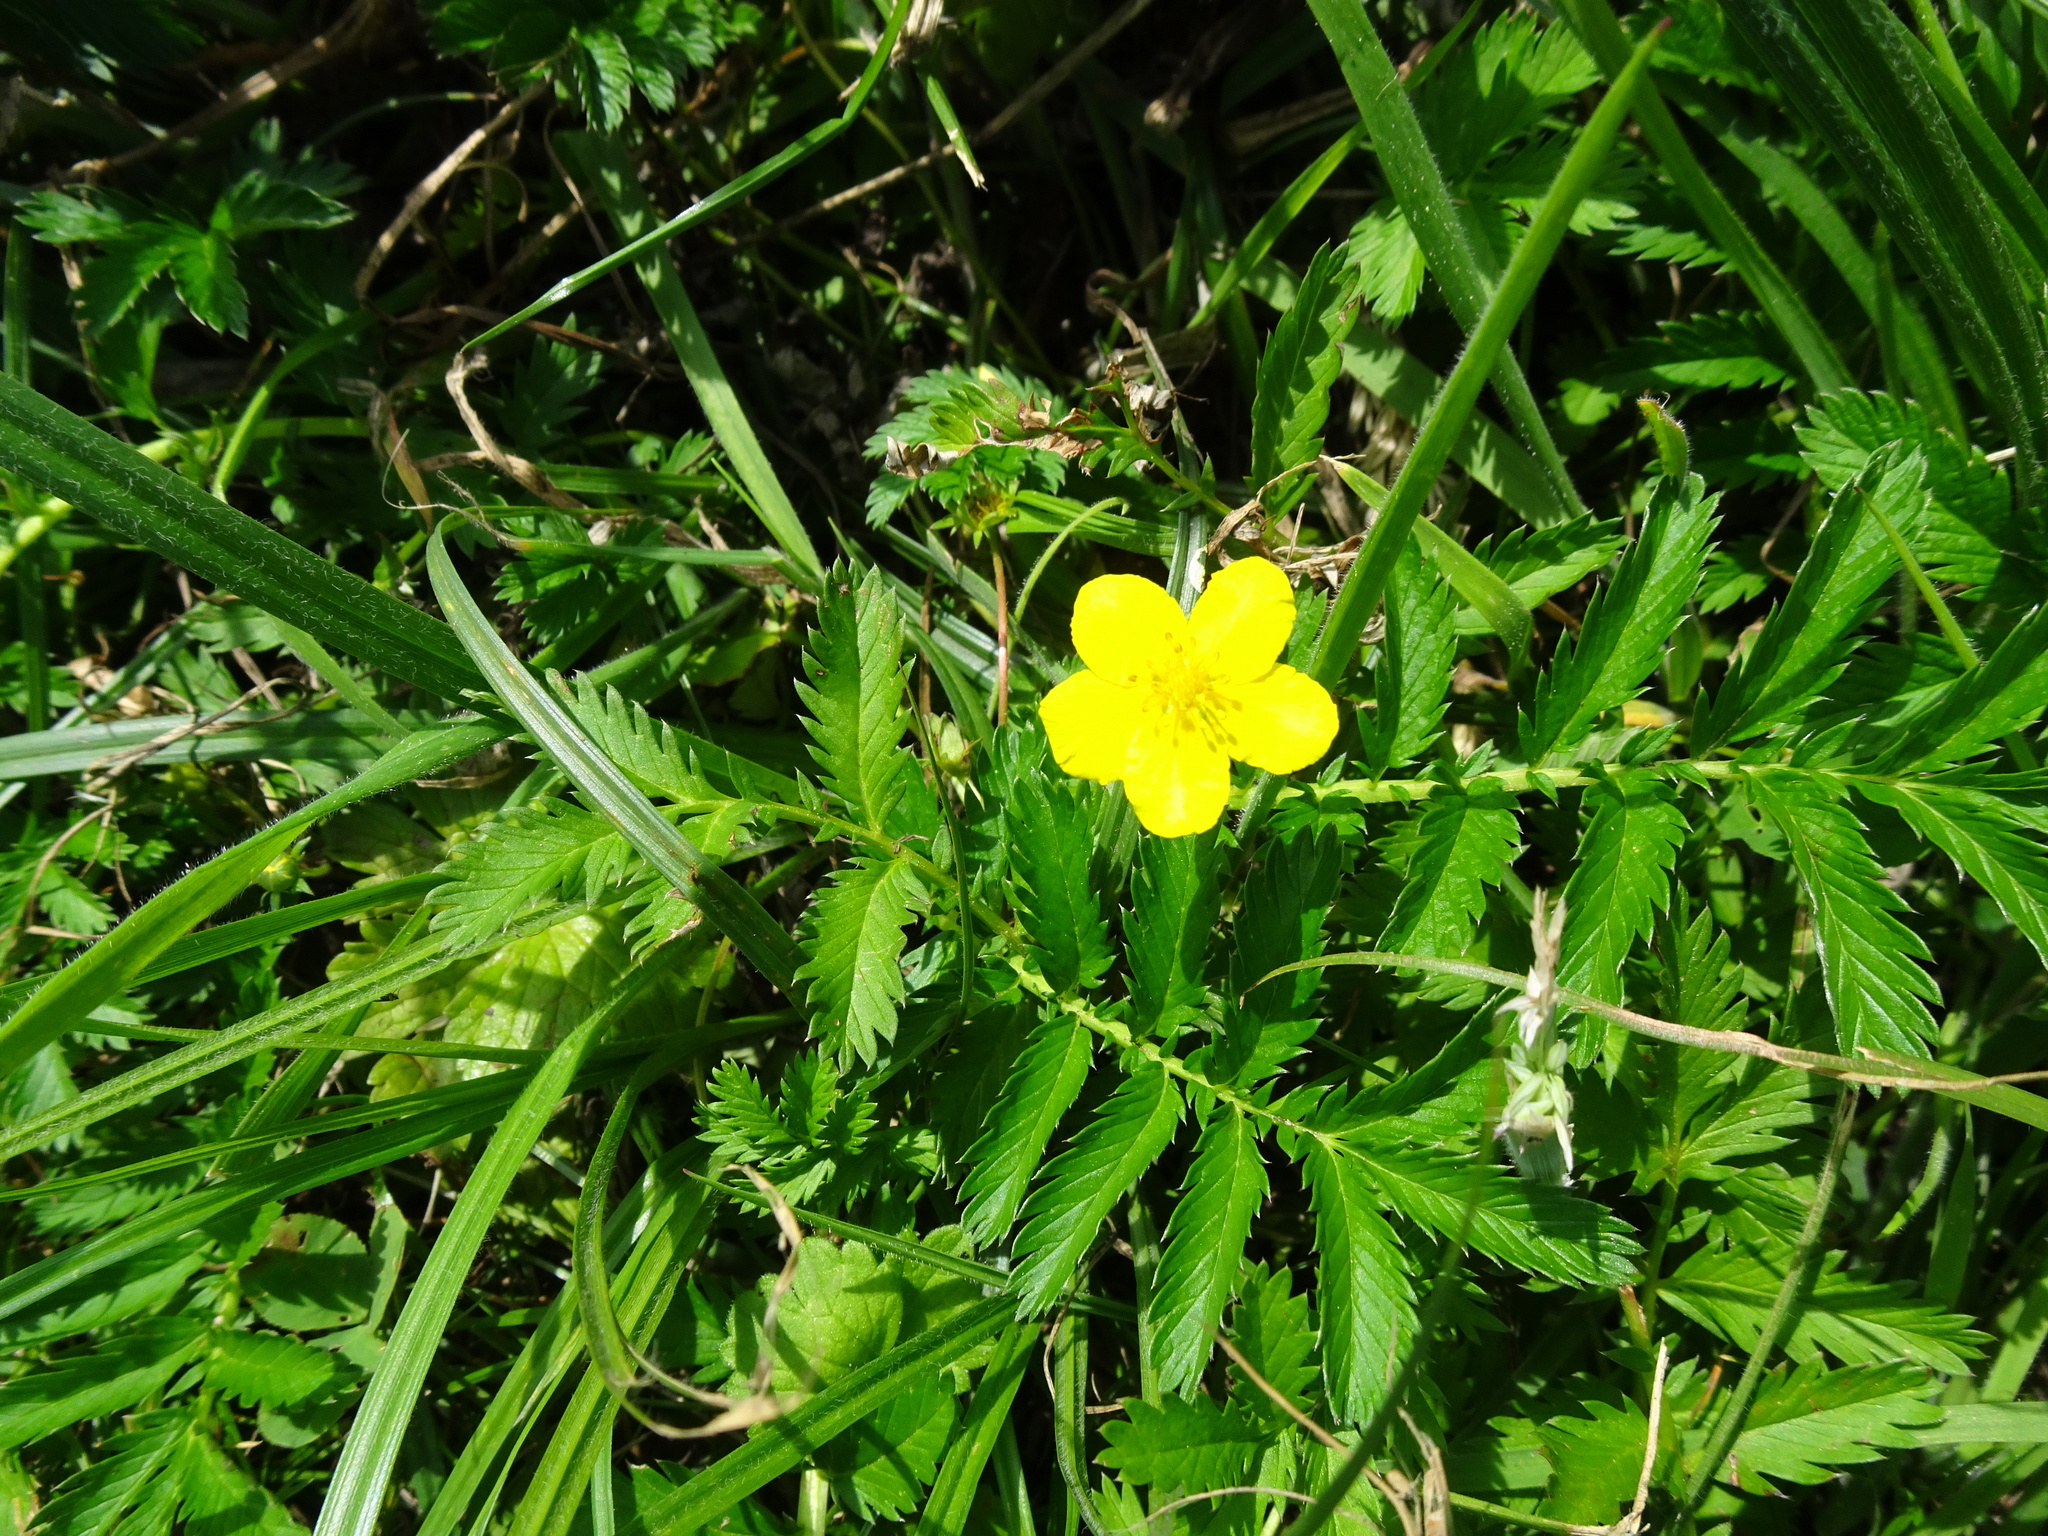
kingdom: Plantae
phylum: Tracheophyta
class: Magnoliopsida
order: Rosales
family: Rosaceae
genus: Argentina
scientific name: Argentina anserina
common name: Common silverweed
